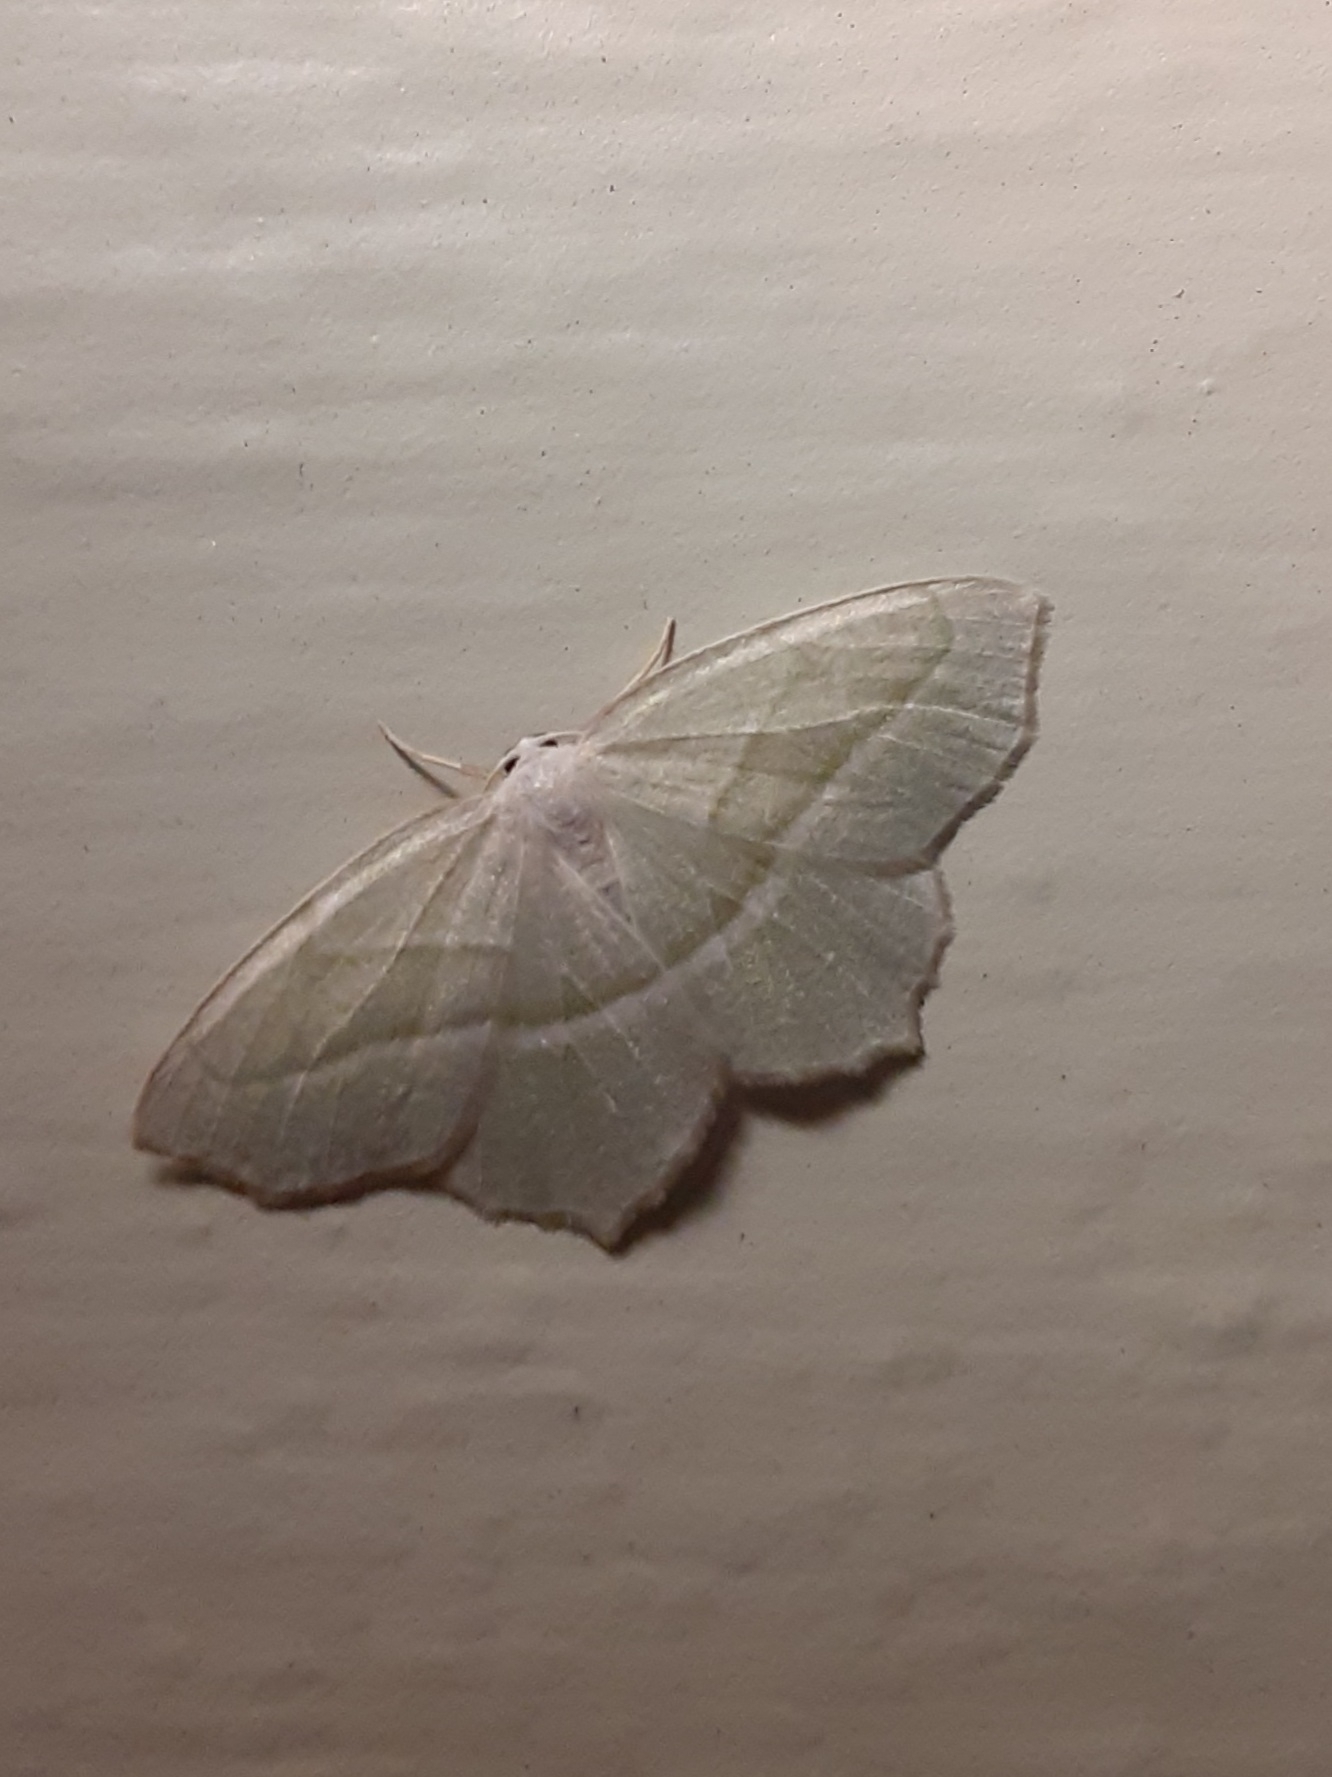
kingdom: Animalia
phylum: Arthropoda
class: Insecta
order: Lepidoptera
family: Geometridae
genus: Campaea
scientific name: Campaea perlata
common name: Fringed looper
